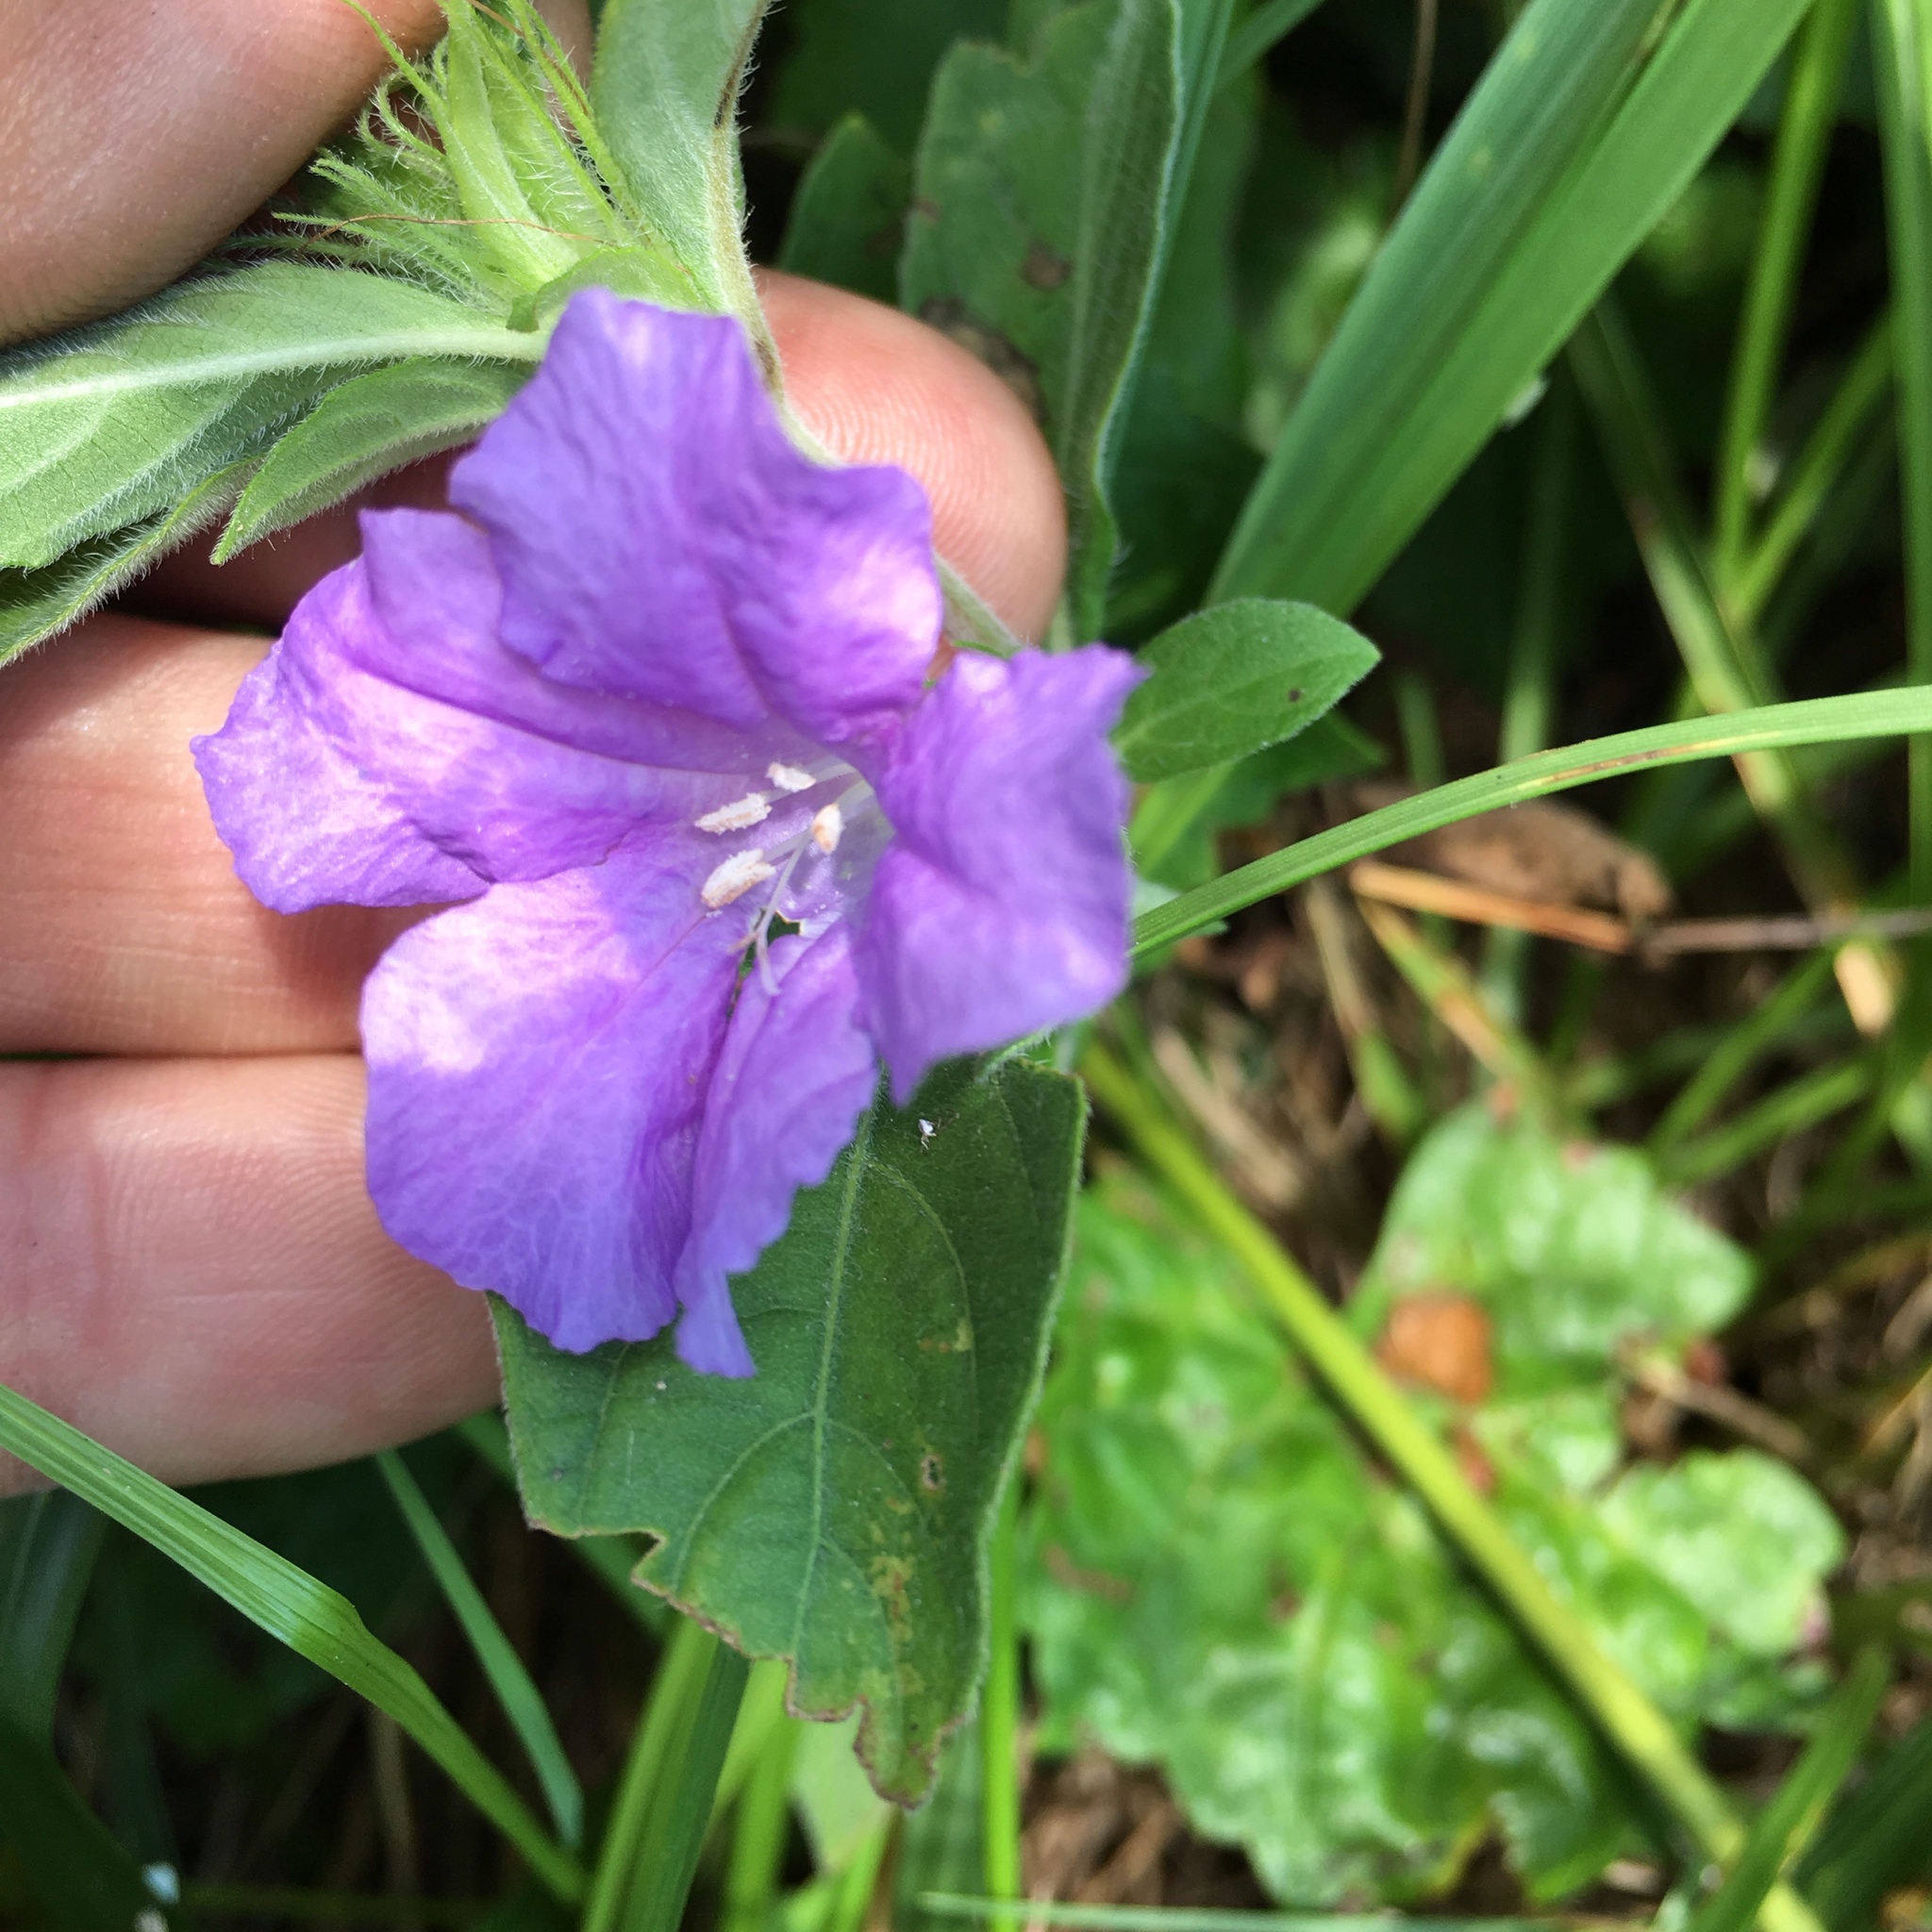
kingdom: Plantae
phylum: Tracheophyta
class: Magnoliopsida
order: Lamiales
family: Acanthaceae
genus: Ruellia
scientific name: Ruellia caroliniensis
